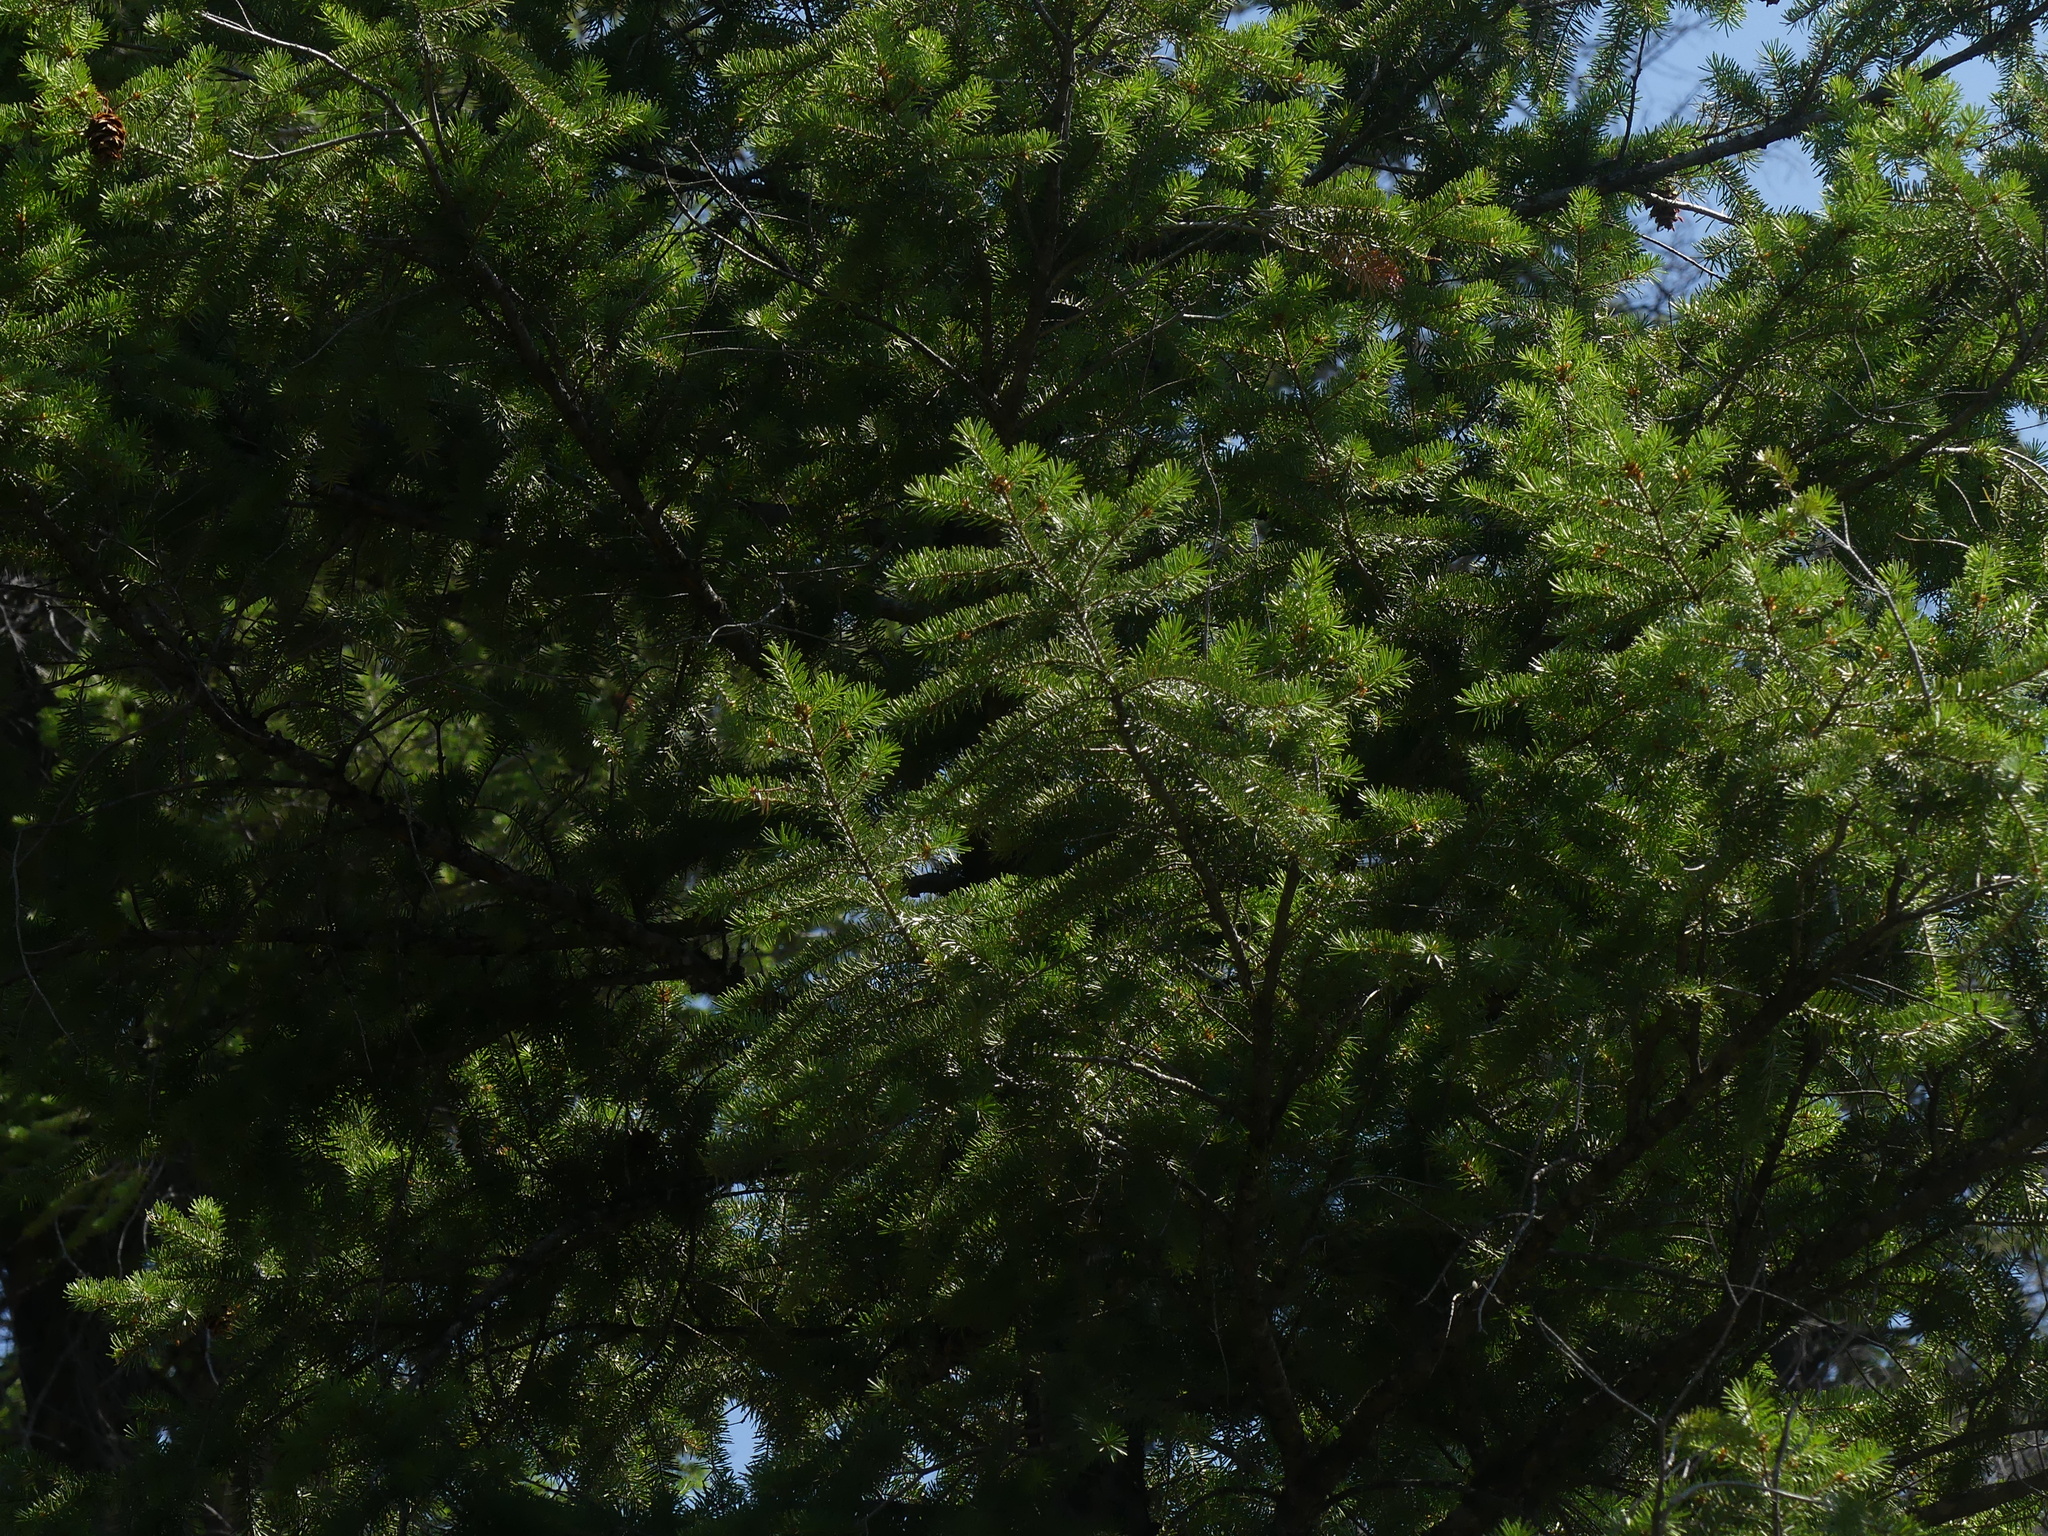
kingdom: Plantae
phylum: Tracheophyta
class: Pinopsida
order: Pinales
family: Pinaceae
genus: Pseudotsuga
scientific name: Pseudotsuga menziesii
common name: Douglas fir
